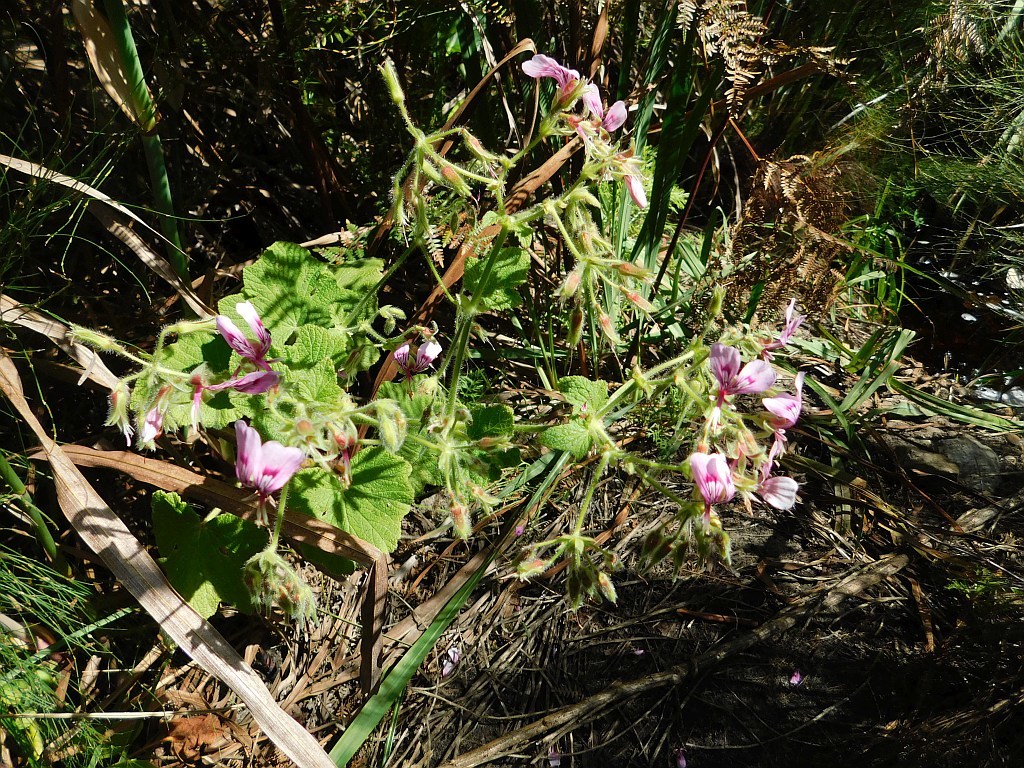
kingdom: Plantae
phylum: Tracheophyta
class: Magnoliopsida
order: Geraniales
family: Geraniaceae
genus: Pelargonium
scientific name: Pelargonium papilionaceum
